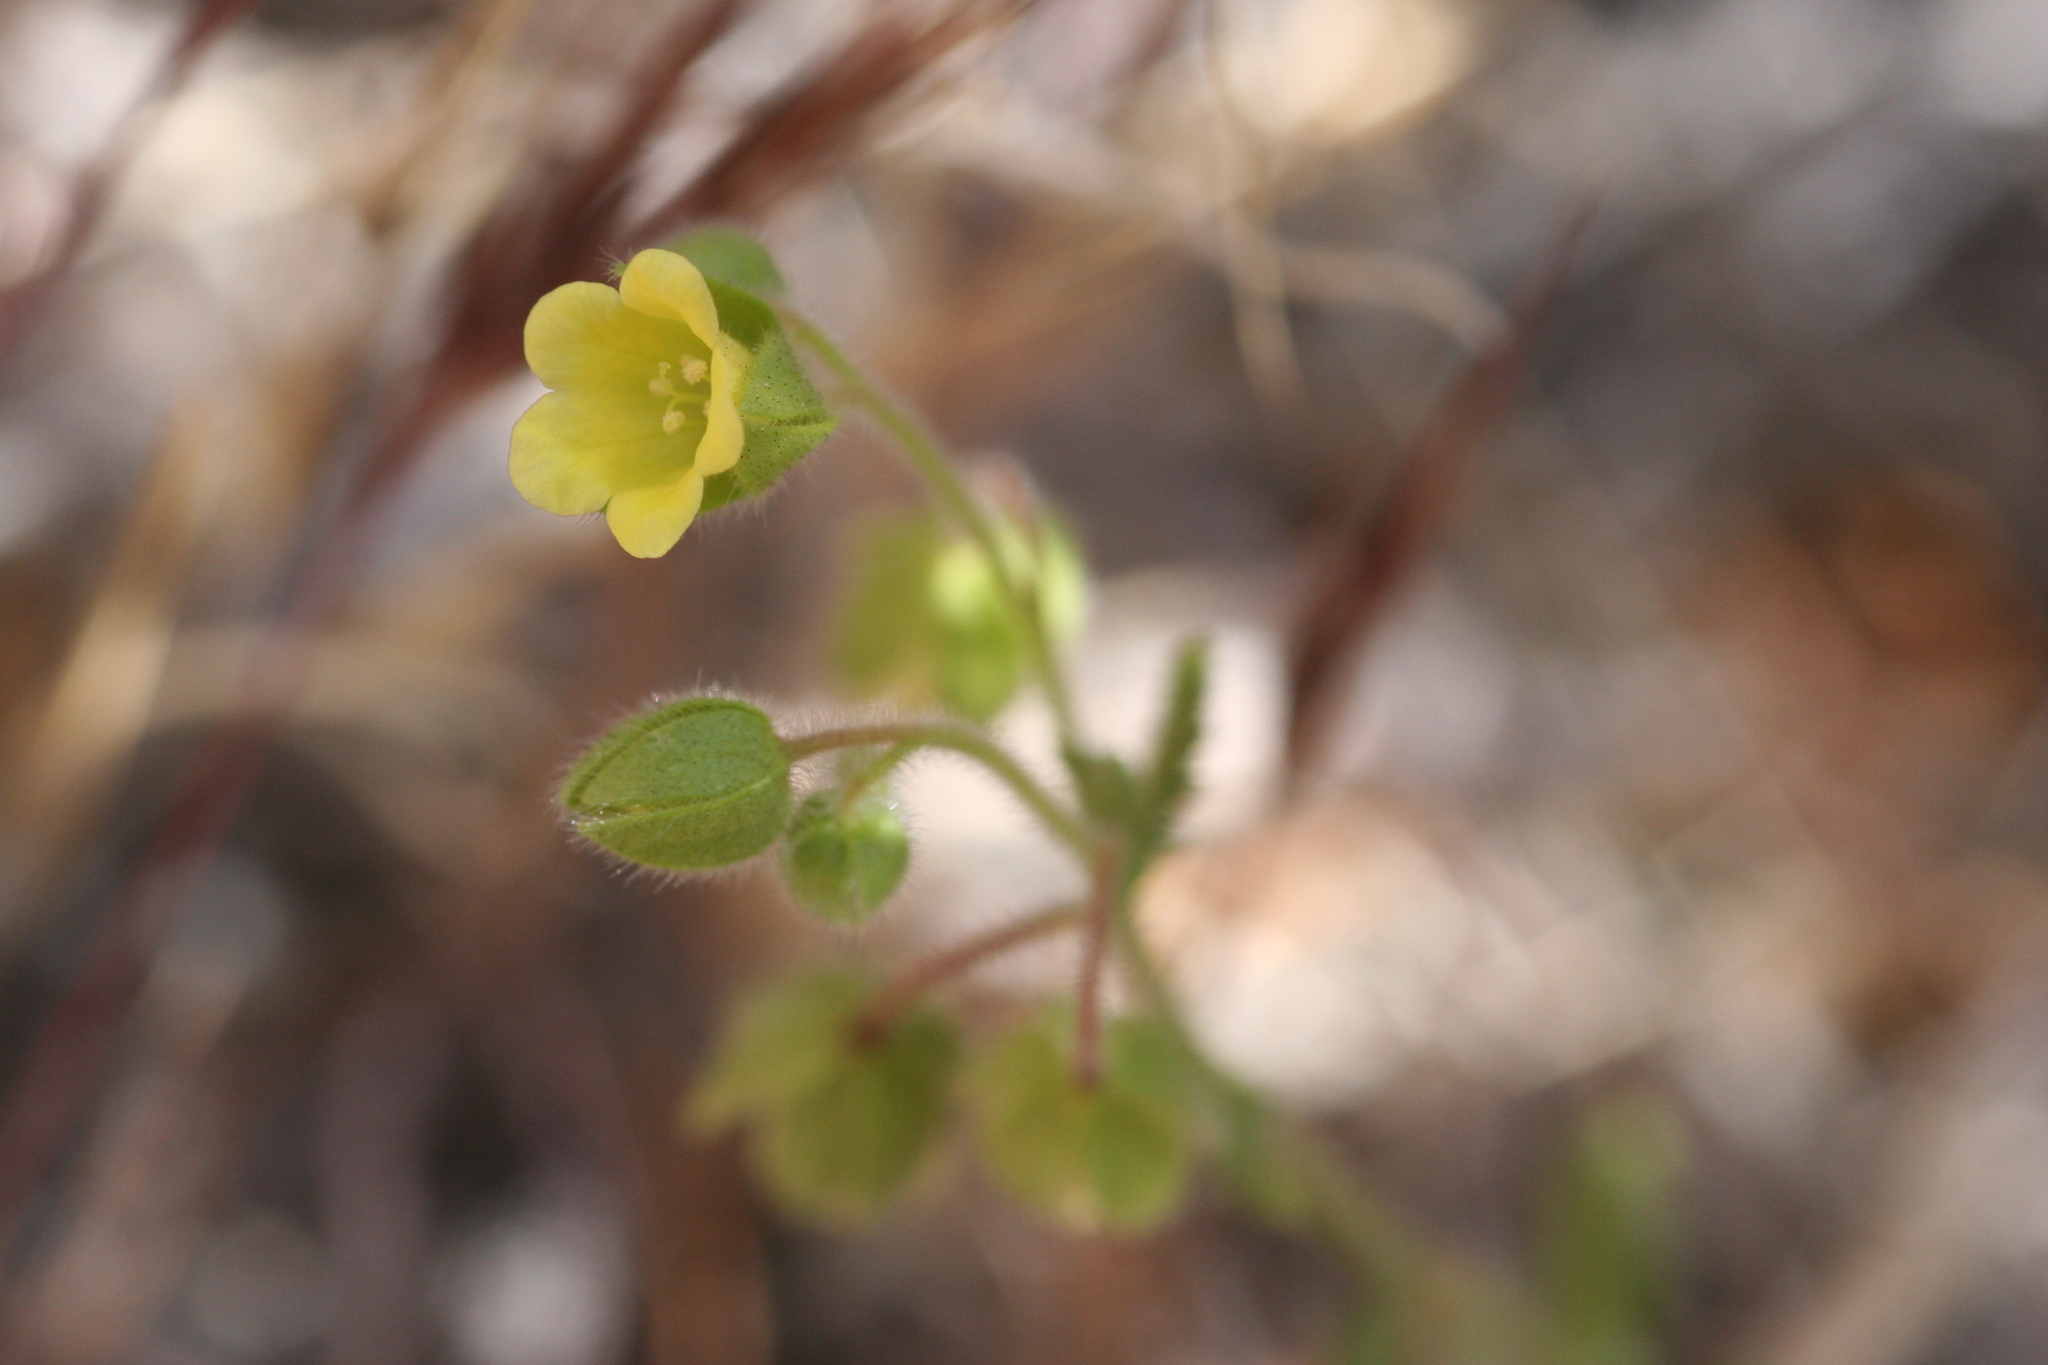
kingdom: Plantae
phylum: Tracheophyta
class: Magnoliopsida
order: Boraginales
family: Hydrophyllaceae
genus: Emmenanthe
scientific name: Emmenanthe penduliflora
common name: Whispering-bells
